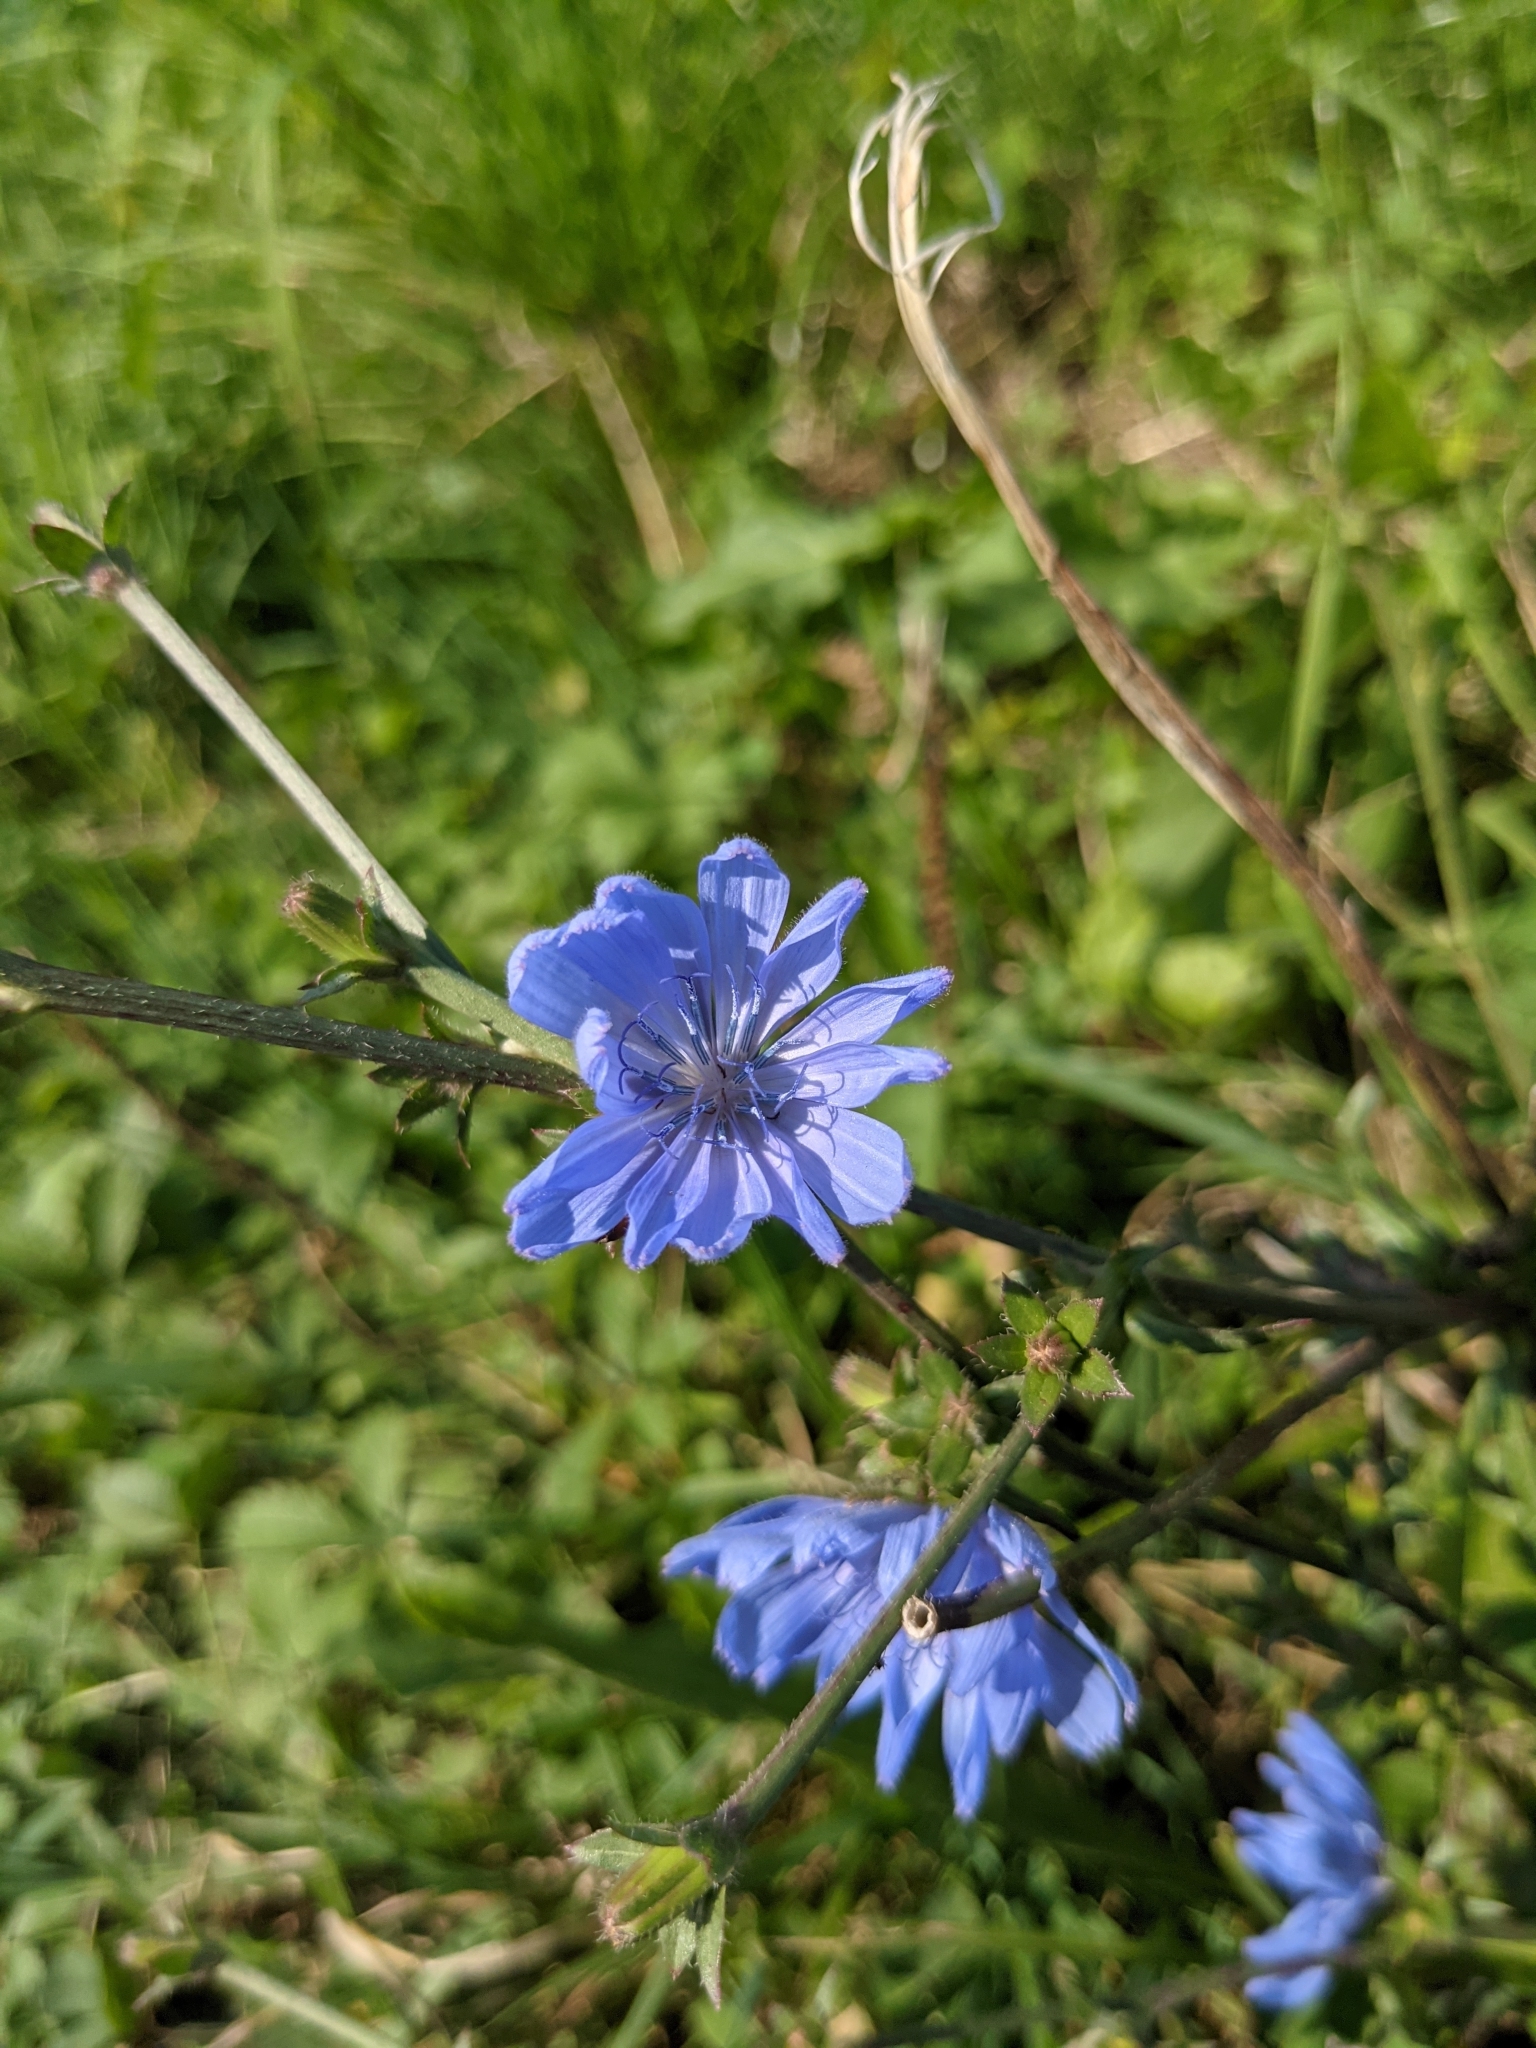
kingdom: Plantae
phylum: Tracheophyta
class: Magnoliopsida
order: Asterales
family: Asteraceae
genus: Cichorium
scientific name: Cichorium intybus
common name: Chicory
